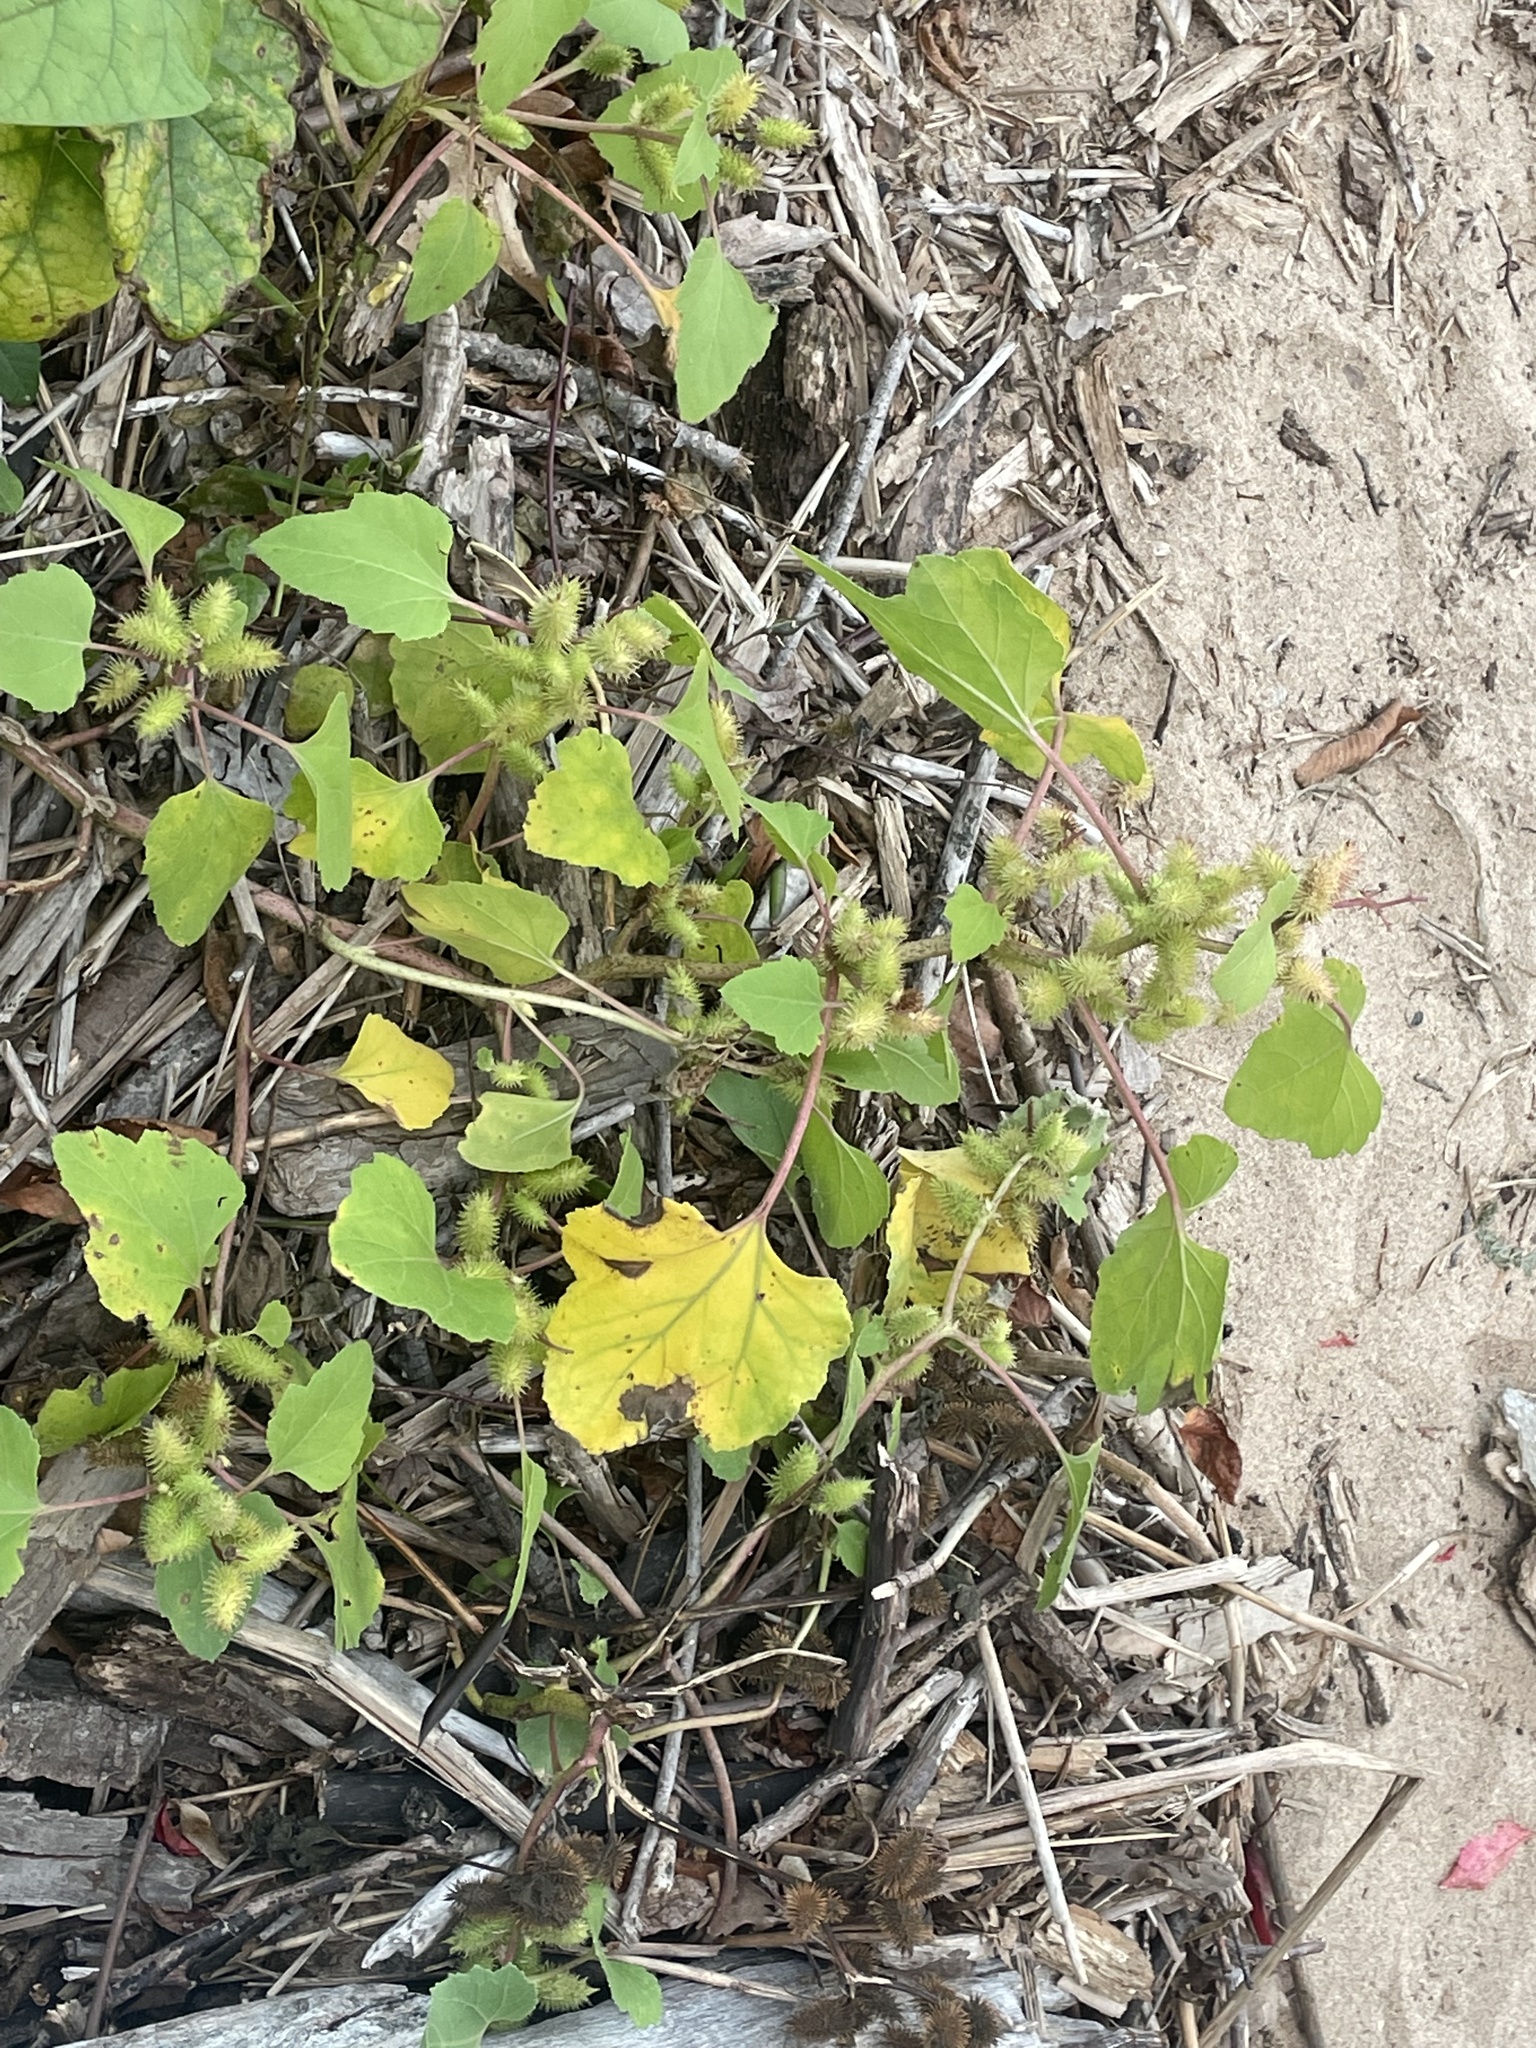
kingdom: Plantae
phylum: Tracheophyta
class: Magnoliopsida
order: Asterales
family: Asteraceae
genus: Xanthium
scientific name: Xanthium strumarium
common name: Rough cocklebur
